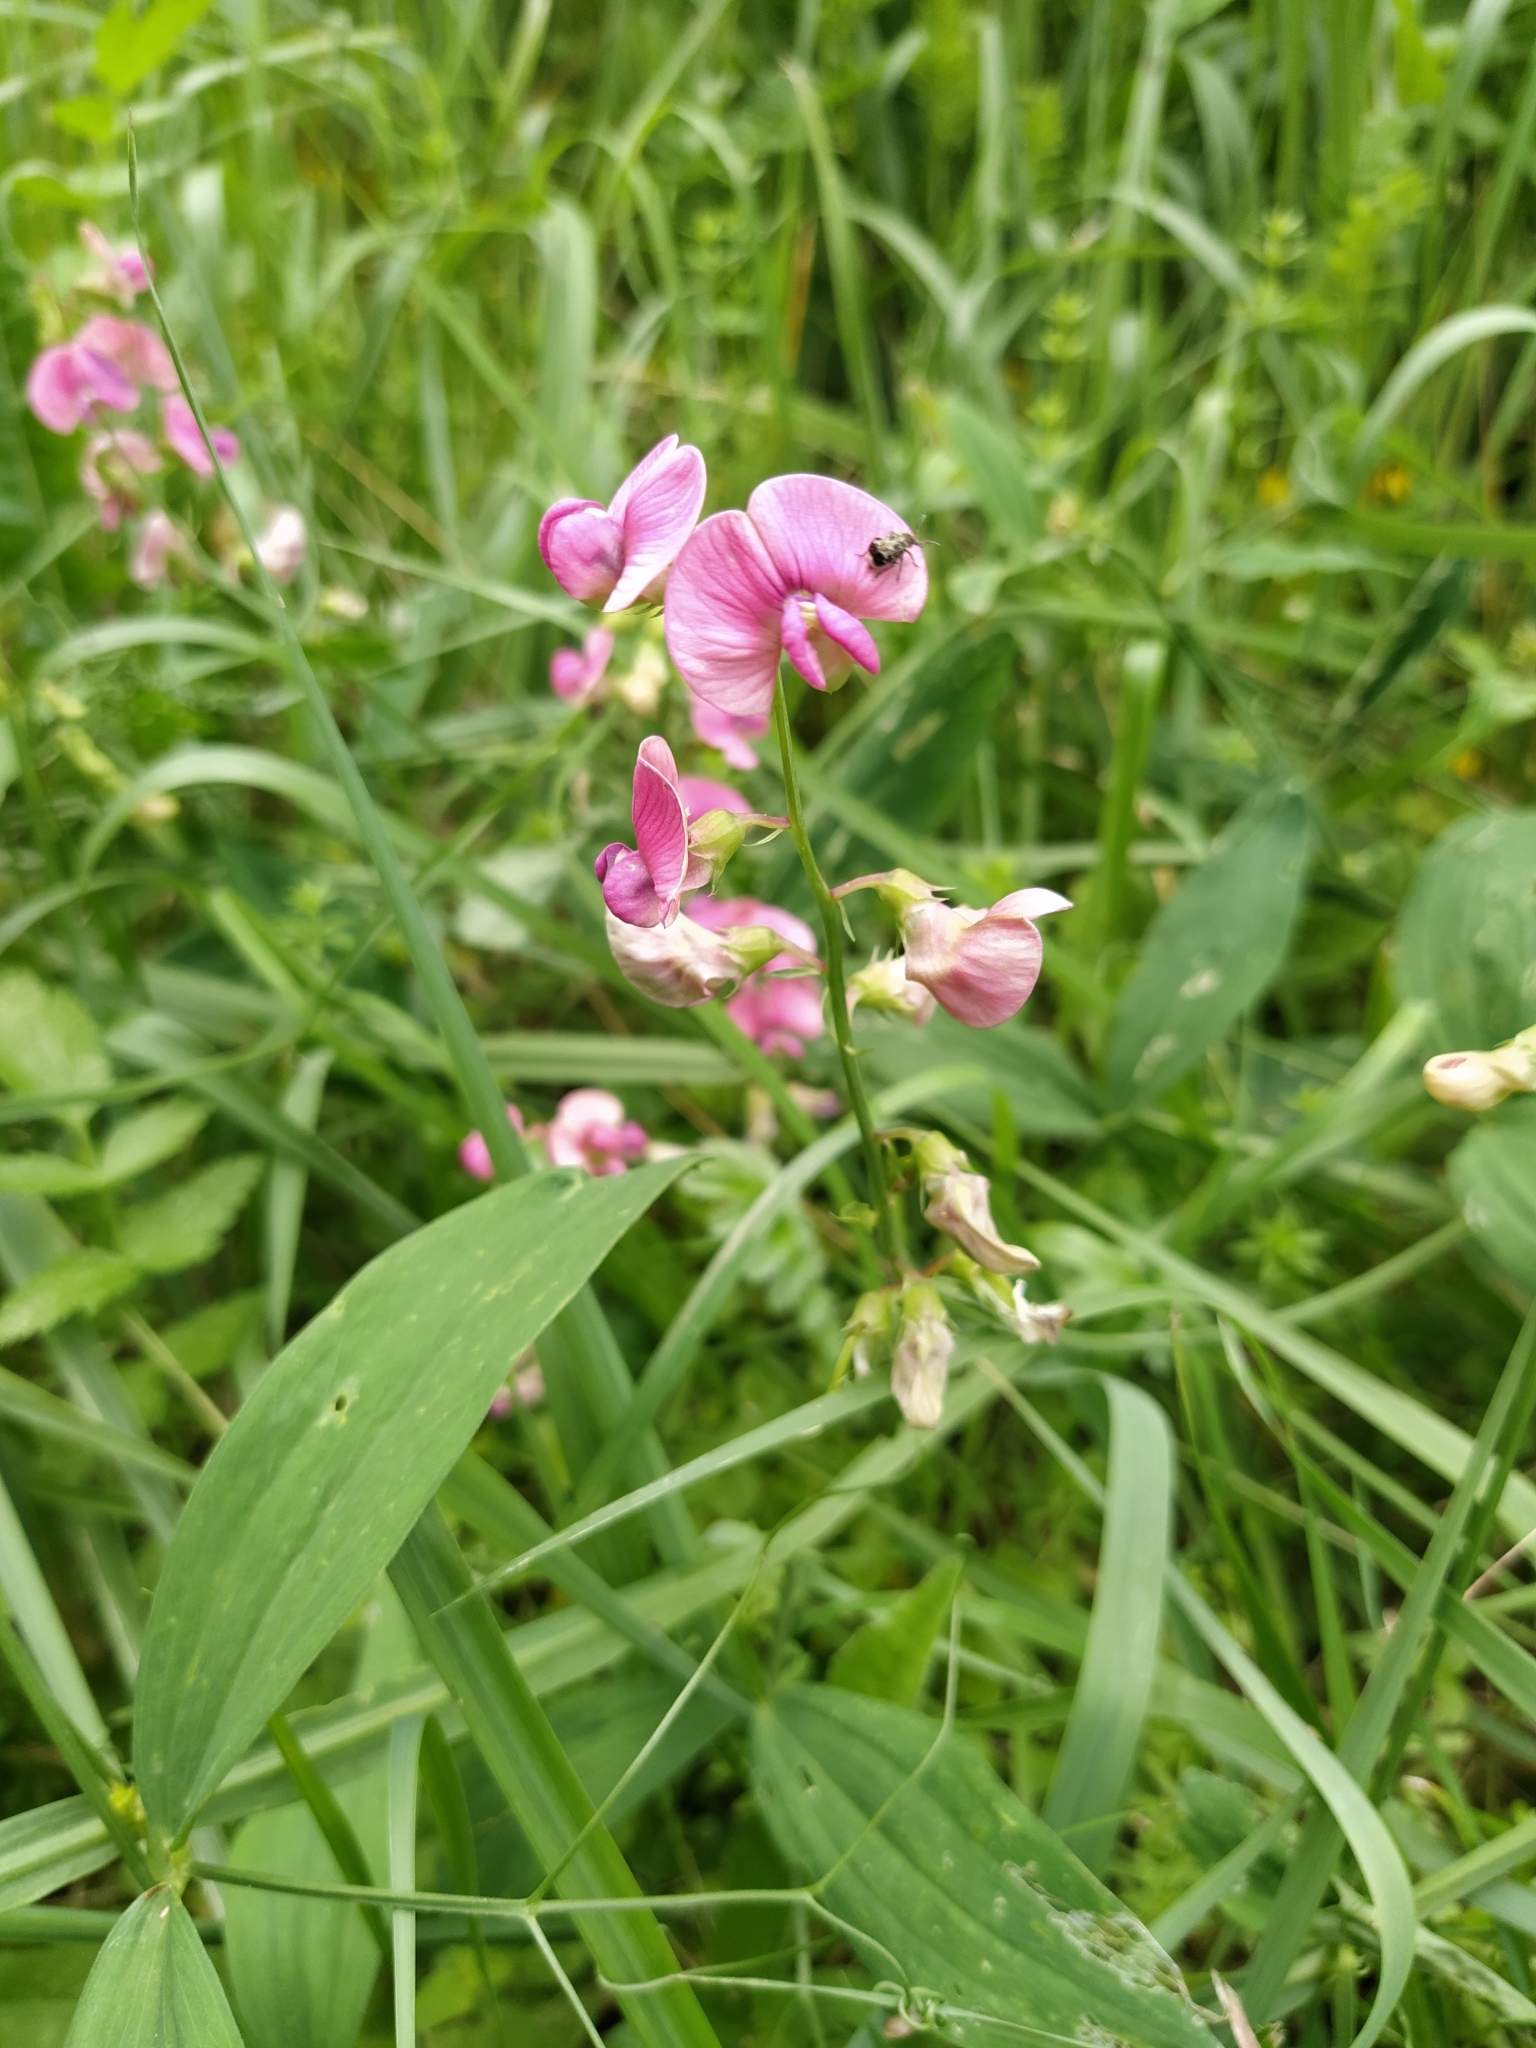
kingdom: Plantae
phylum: Tracheophyta
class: Magnoliopsida
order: Fabales
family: Fabaceae
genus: Lathyrus
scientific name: Lathyrus sylvestris
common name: Flat pea
